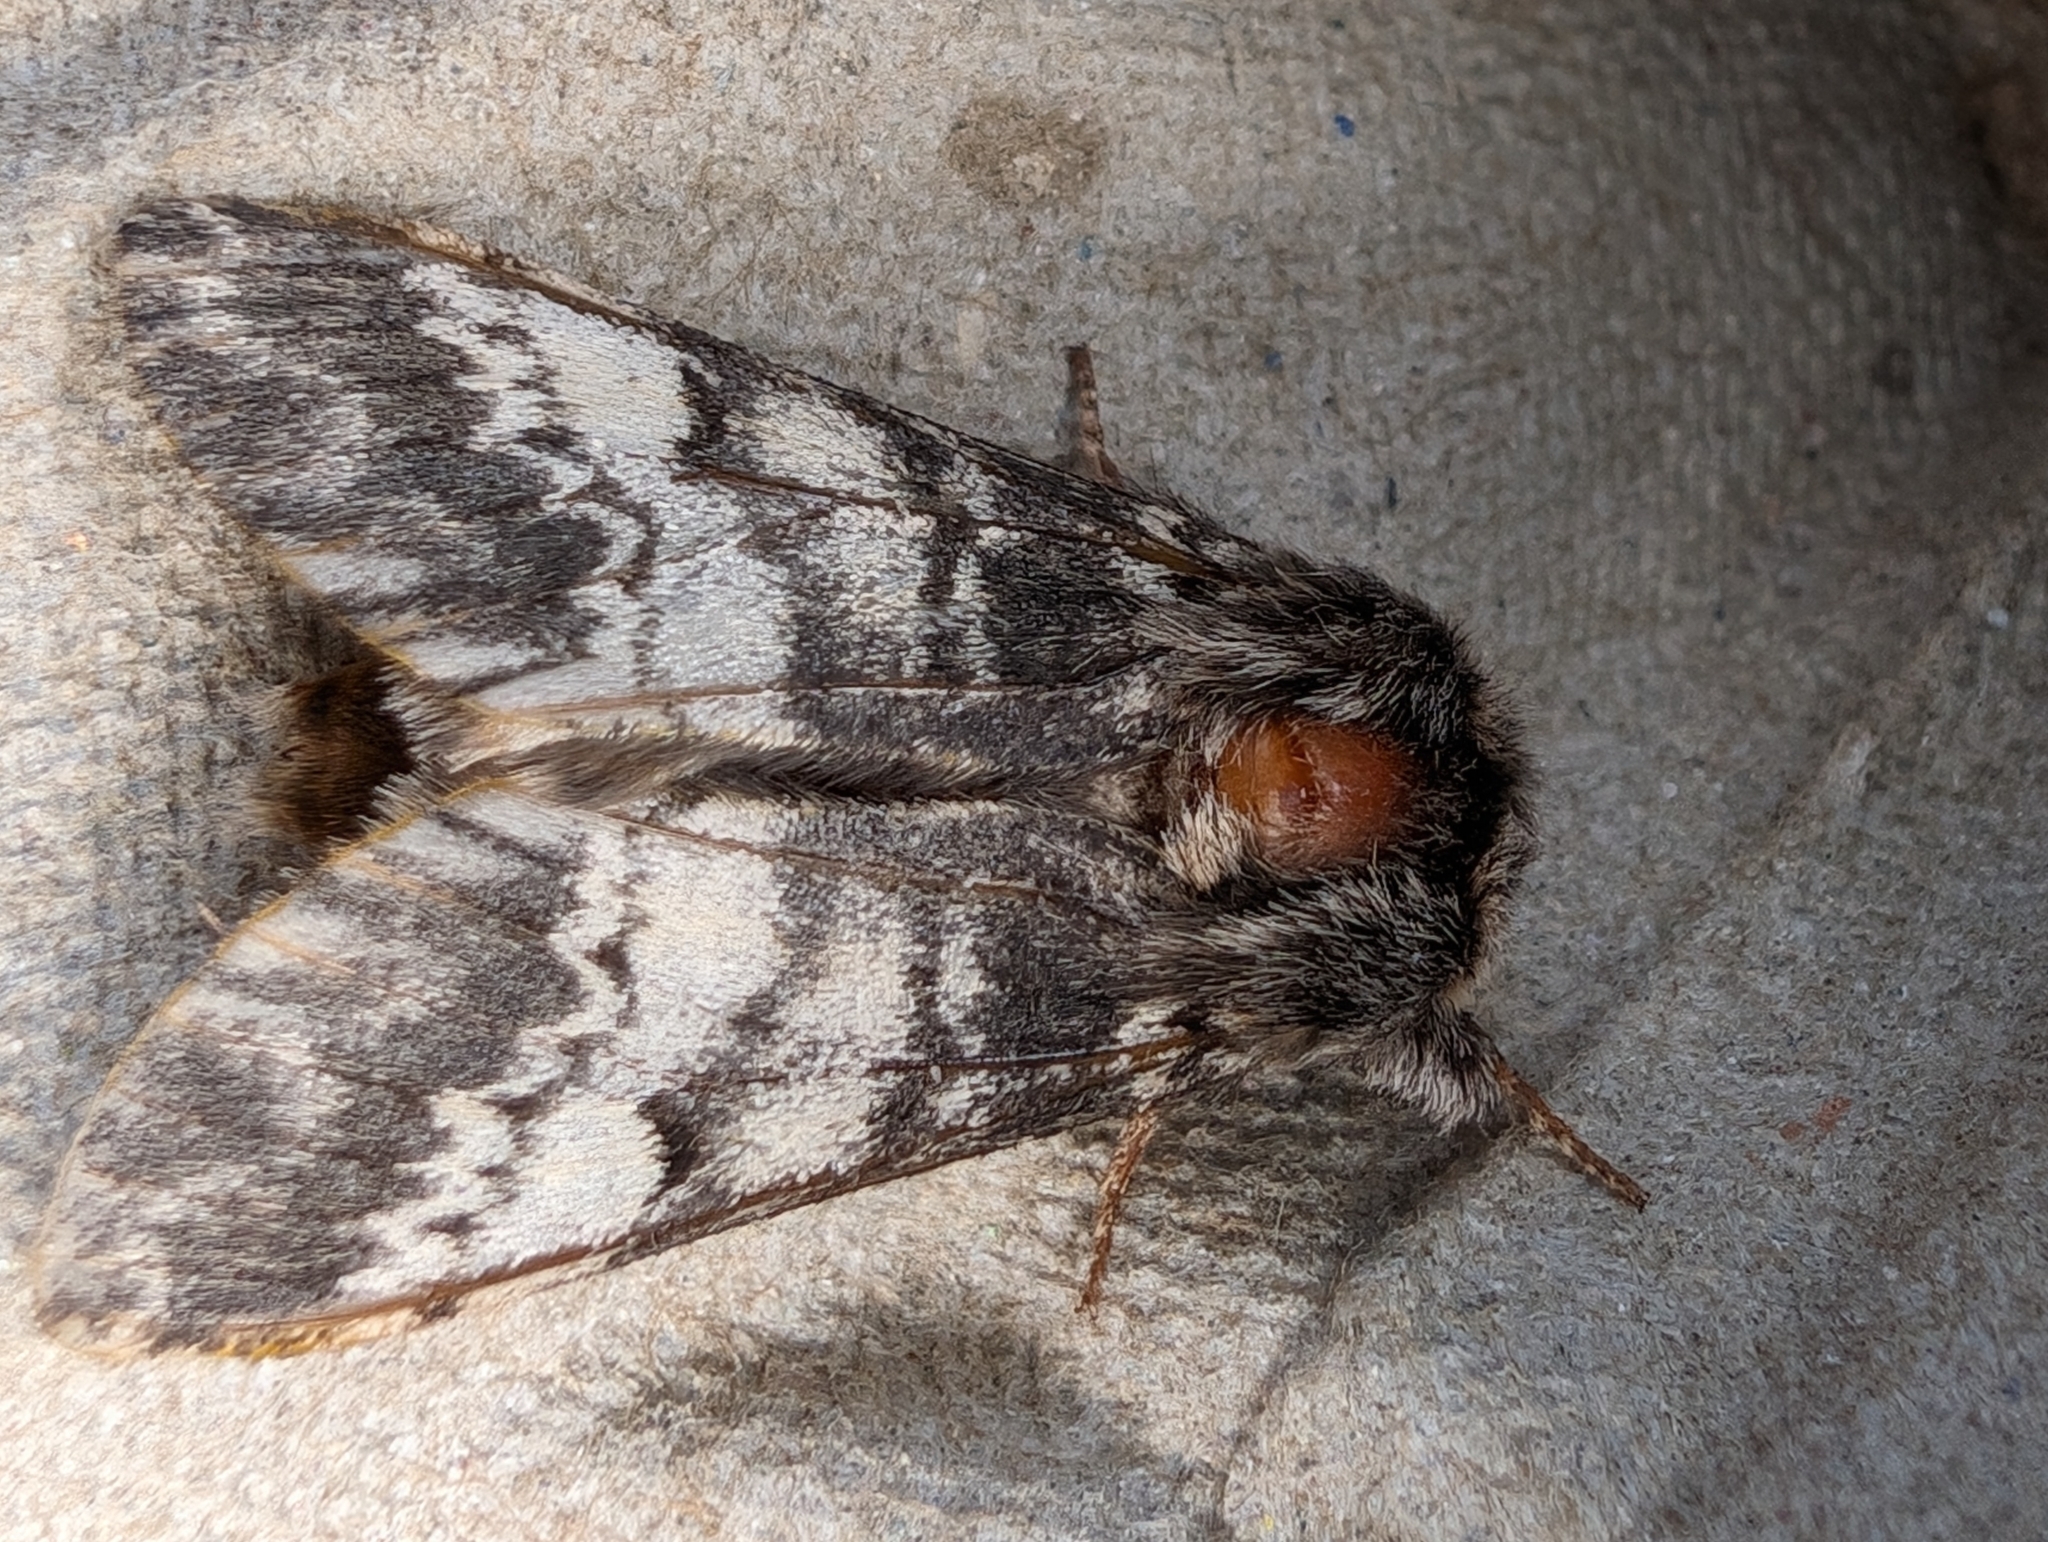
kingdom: Animalia
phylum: Arthropoda
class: Insecta
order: Lepidoptera
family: Notodontidae
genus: Drymonia
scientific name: Drymonia ruficornis
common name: Lunar marbled brown
